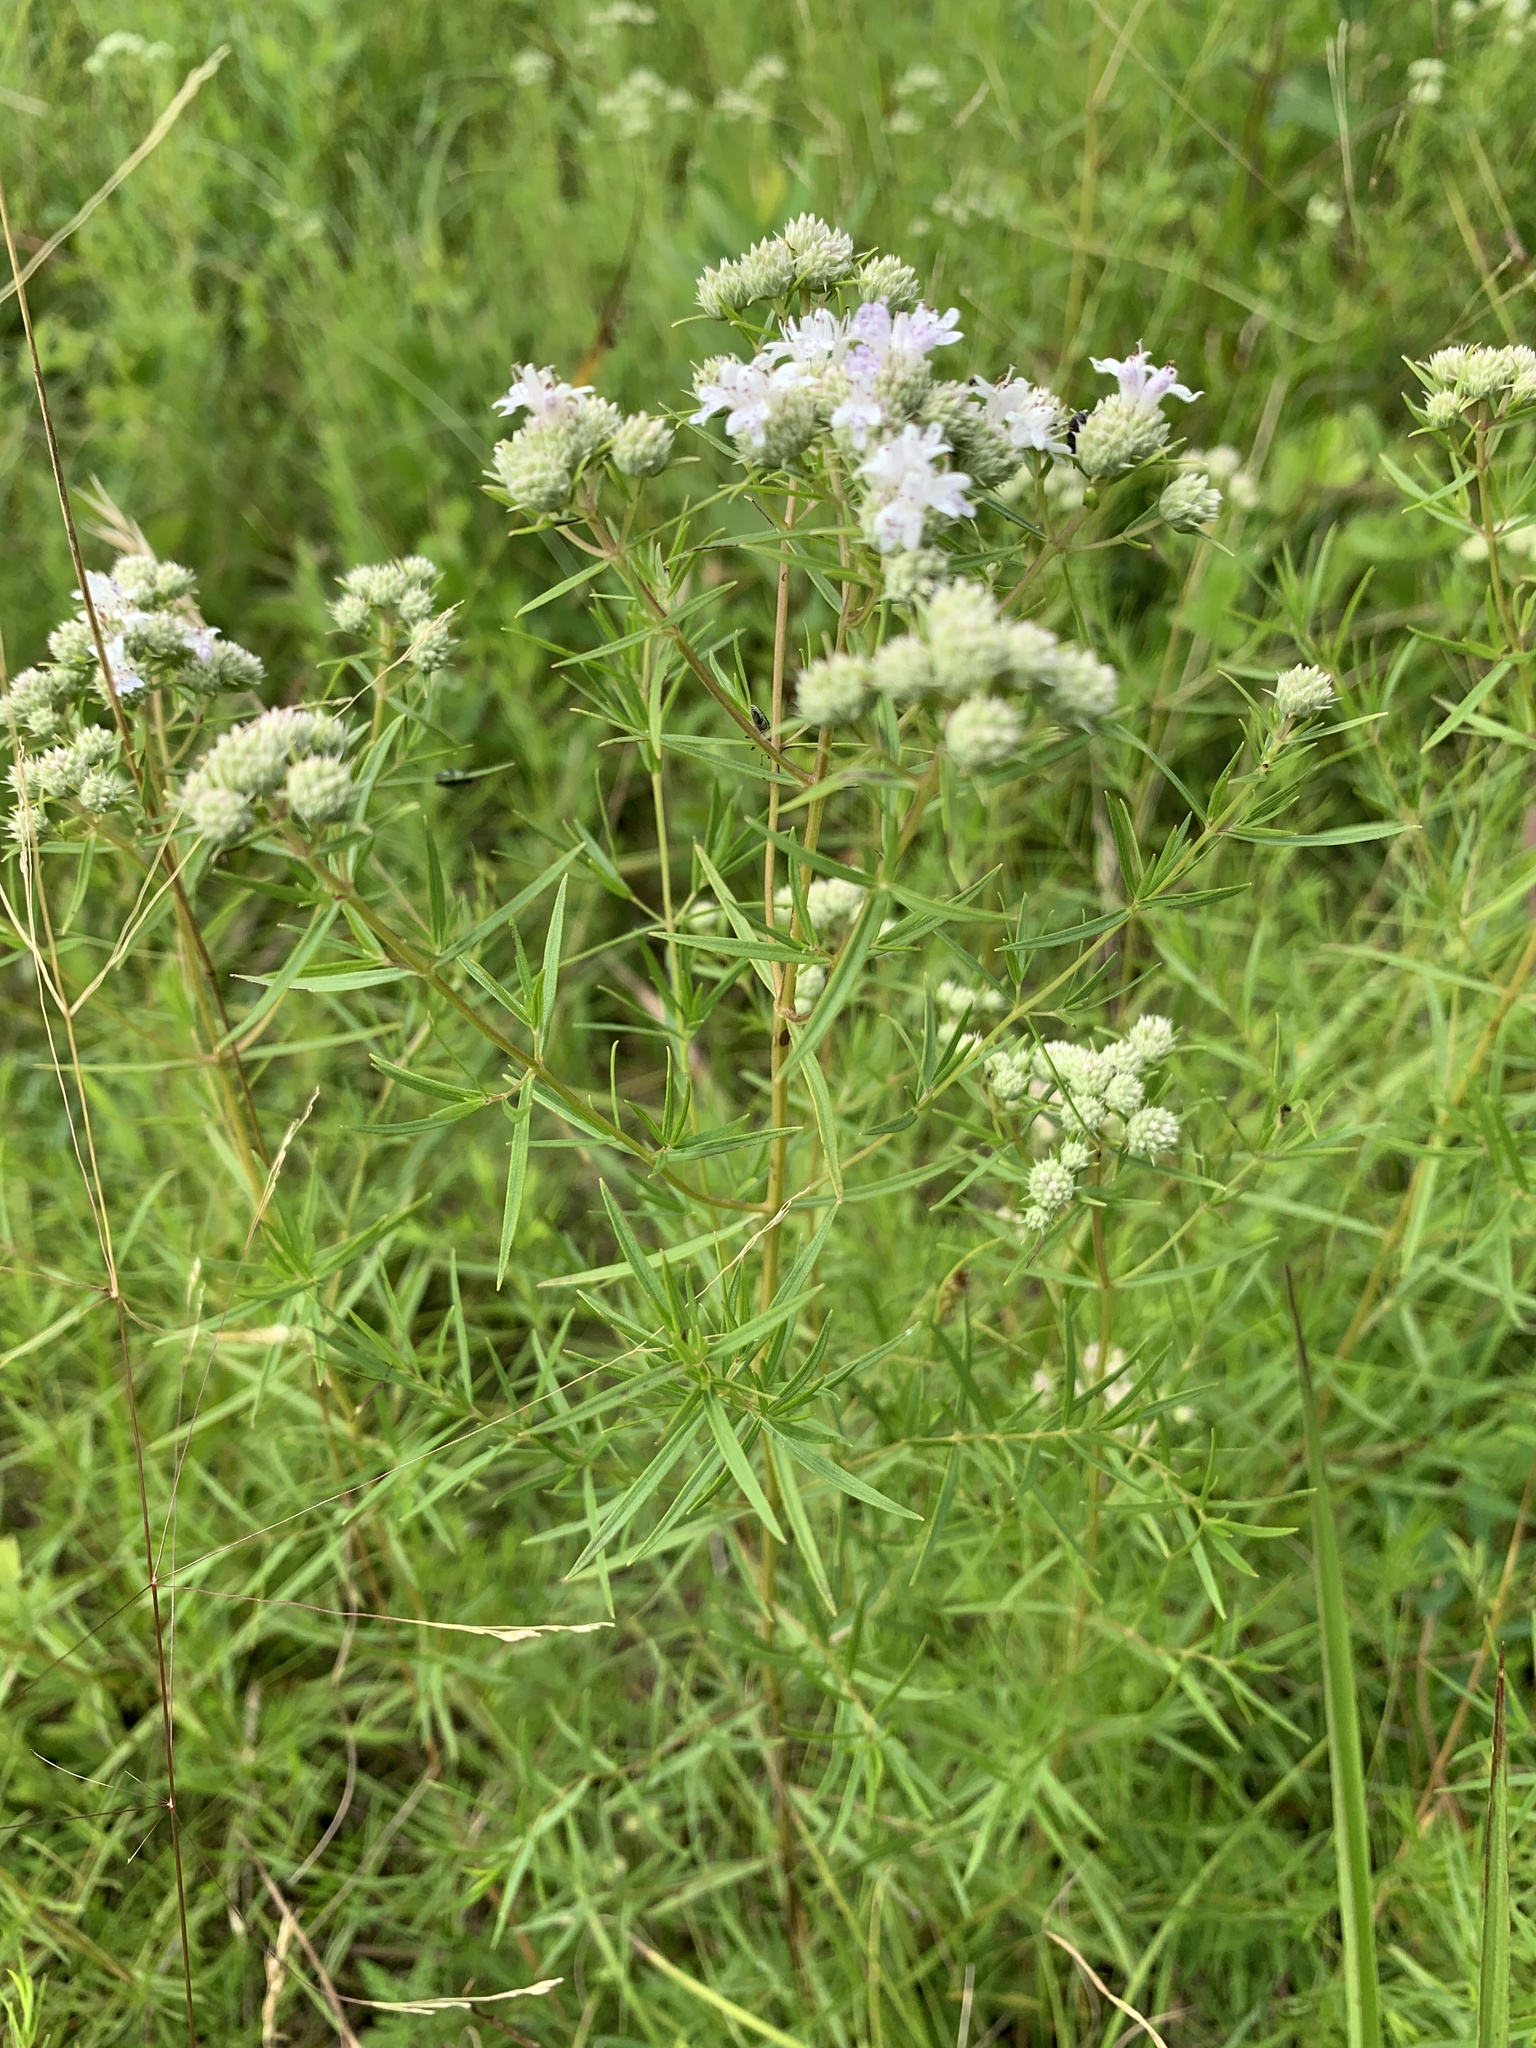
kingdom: Plantae
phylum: Tracheophyta
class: Magnoliopsida
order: Lamiales
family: Lamiaceae
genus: Pycnanthemum
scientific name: Pycnanthemum tenuifolium
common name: Narrow-leaf mountain-mint
